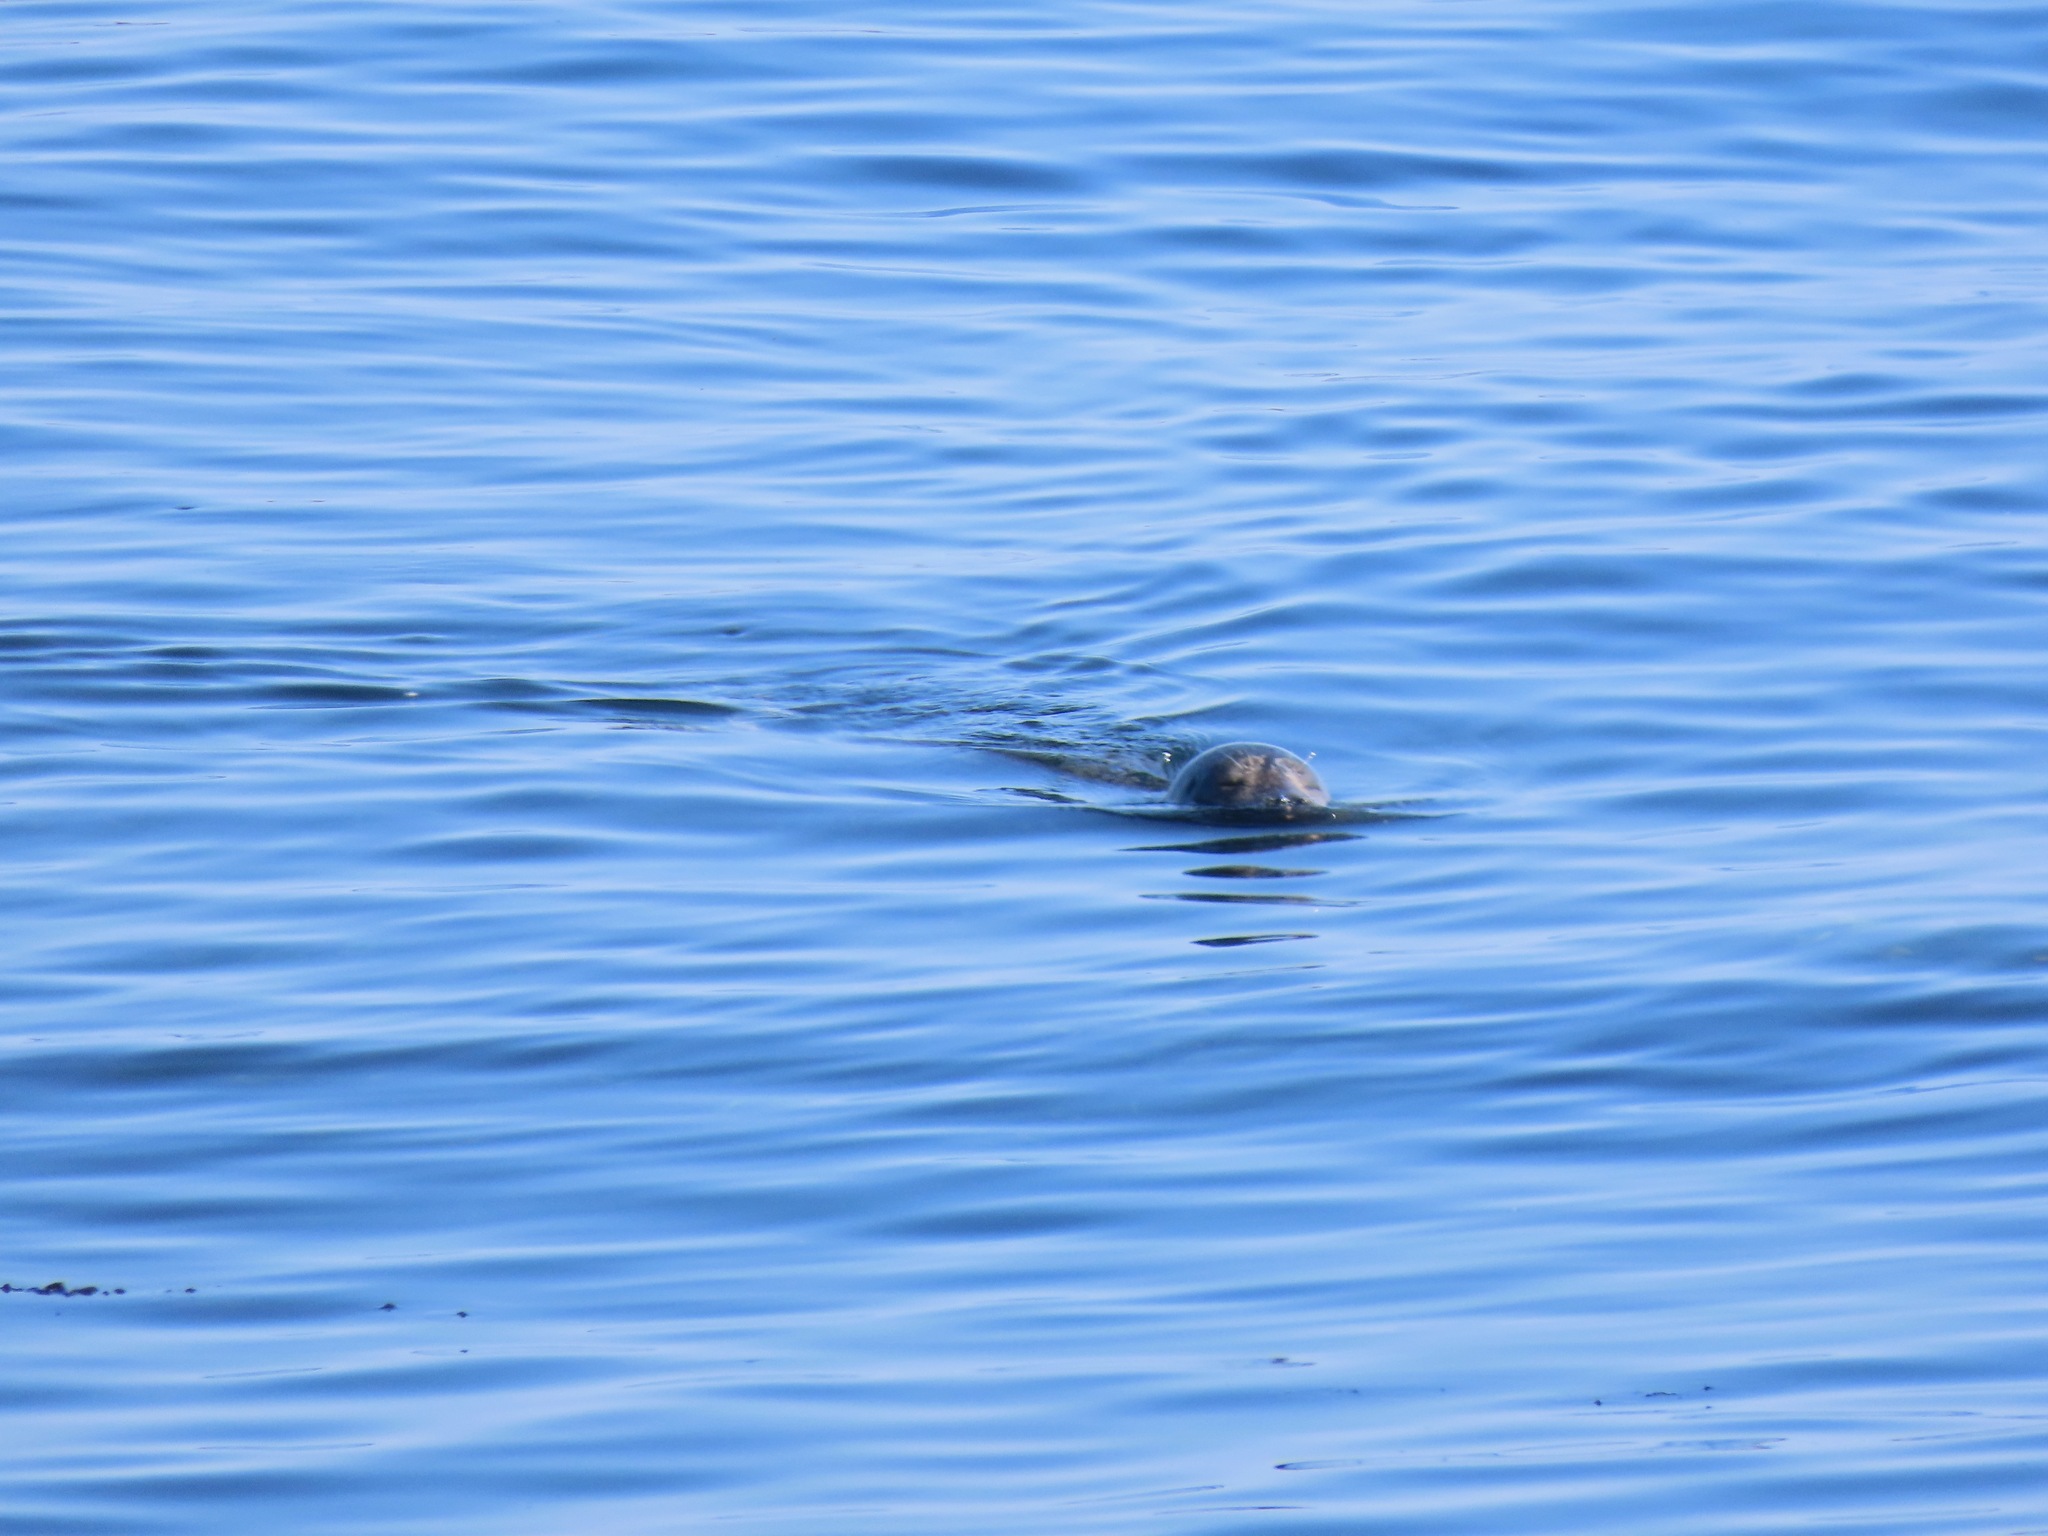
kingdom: Animalia
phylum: Chordata
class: Mammalia
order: Carnivora
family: Phocidae
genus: Phoca
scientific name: Phoca vitulina
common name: Harbor seal
